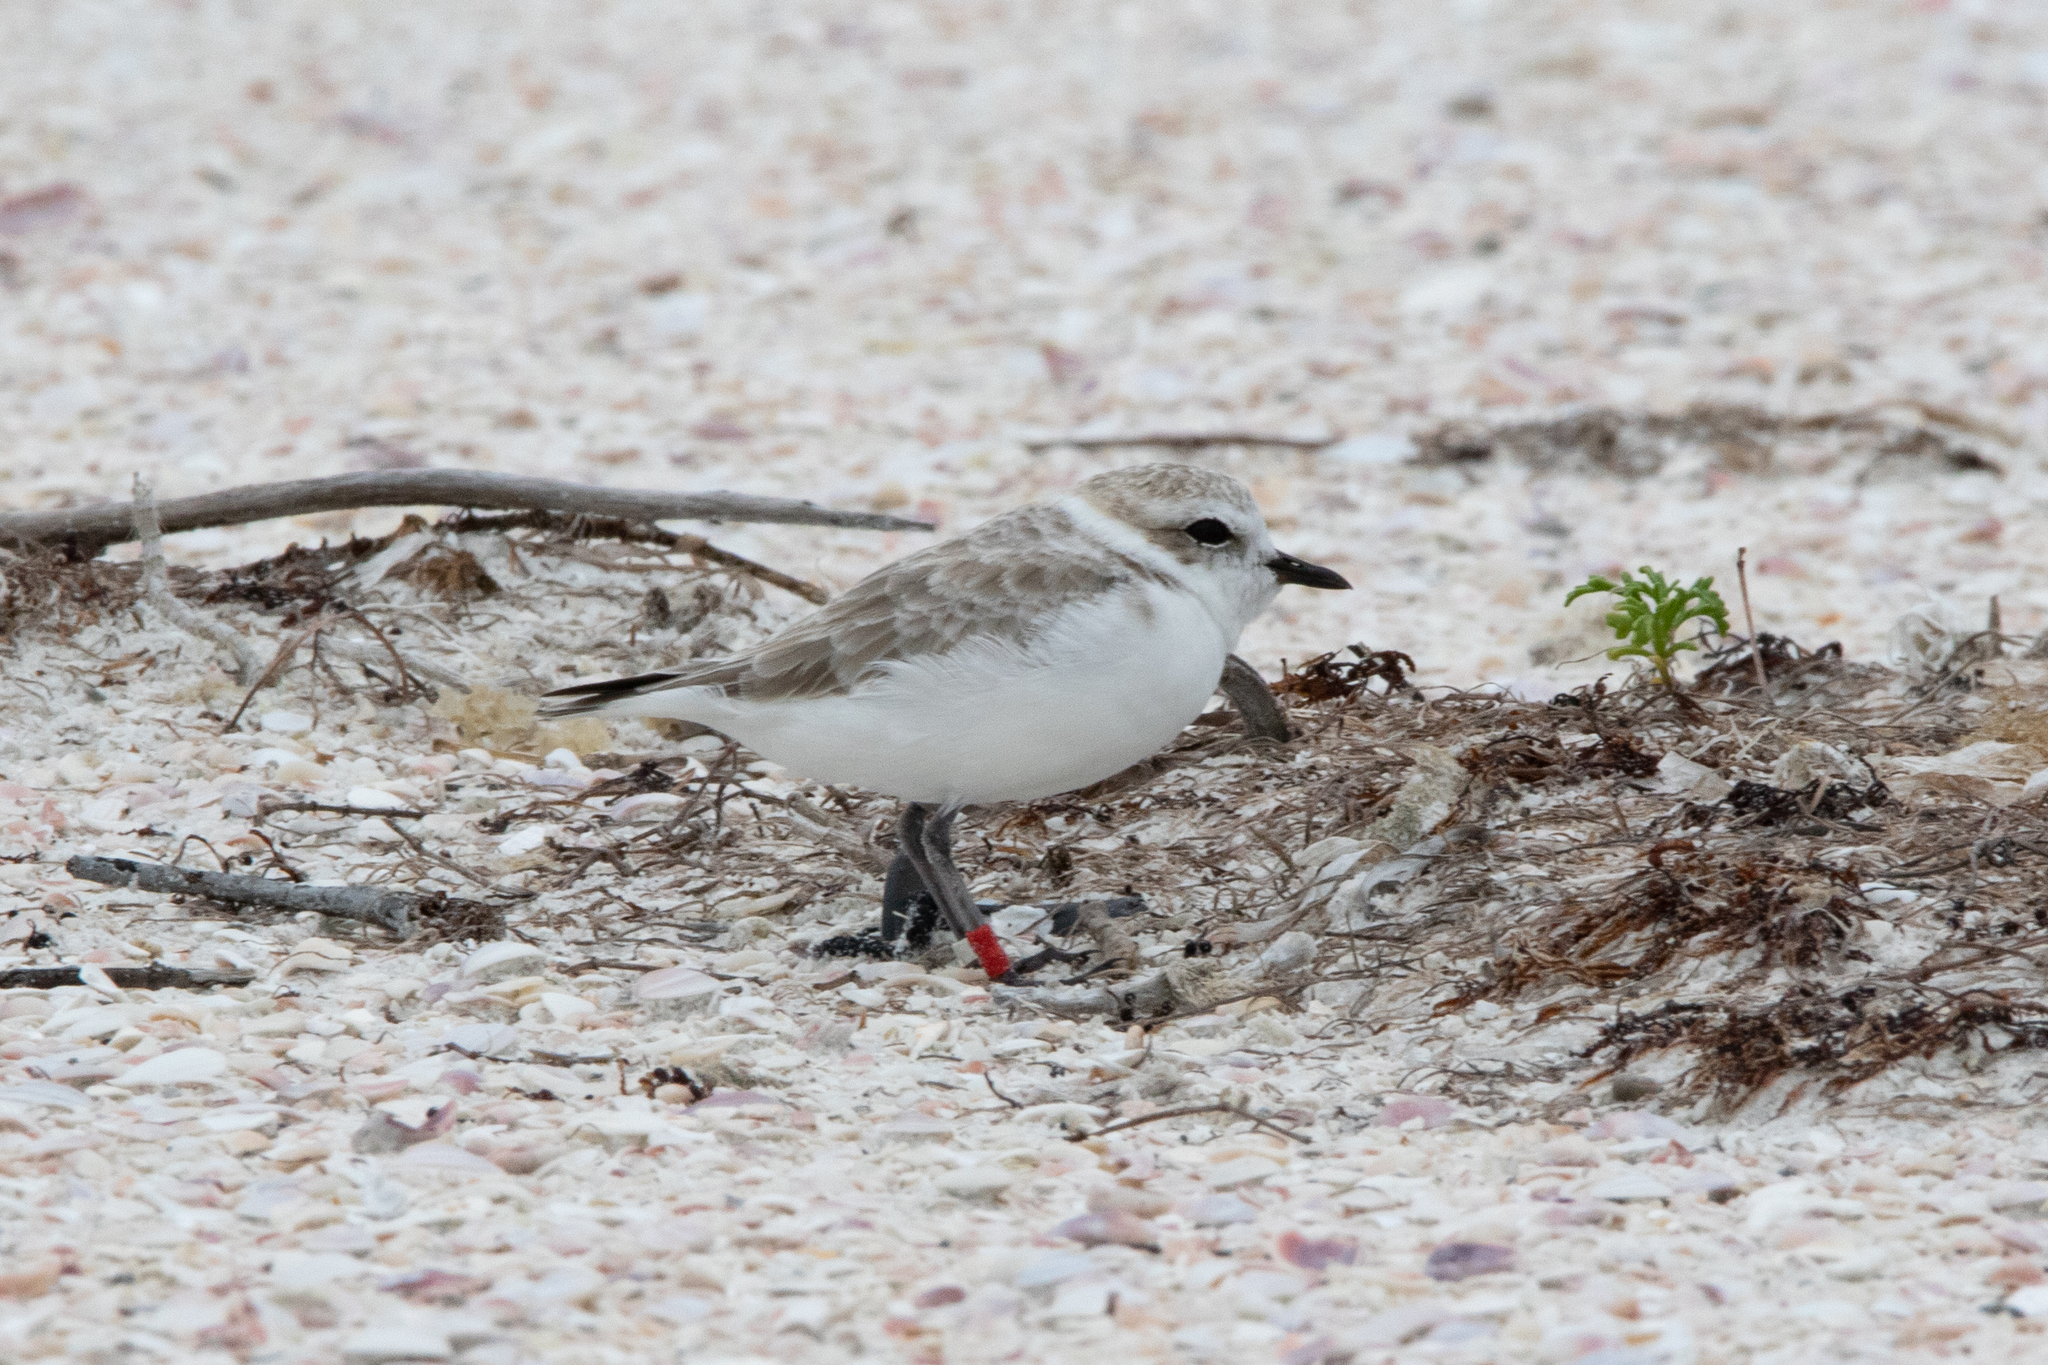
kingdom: Animalia
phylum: Chordata
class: Aves
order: Charadriiformes
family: Charadriidae
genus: Anarhynchus
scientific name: Anarhynchus
